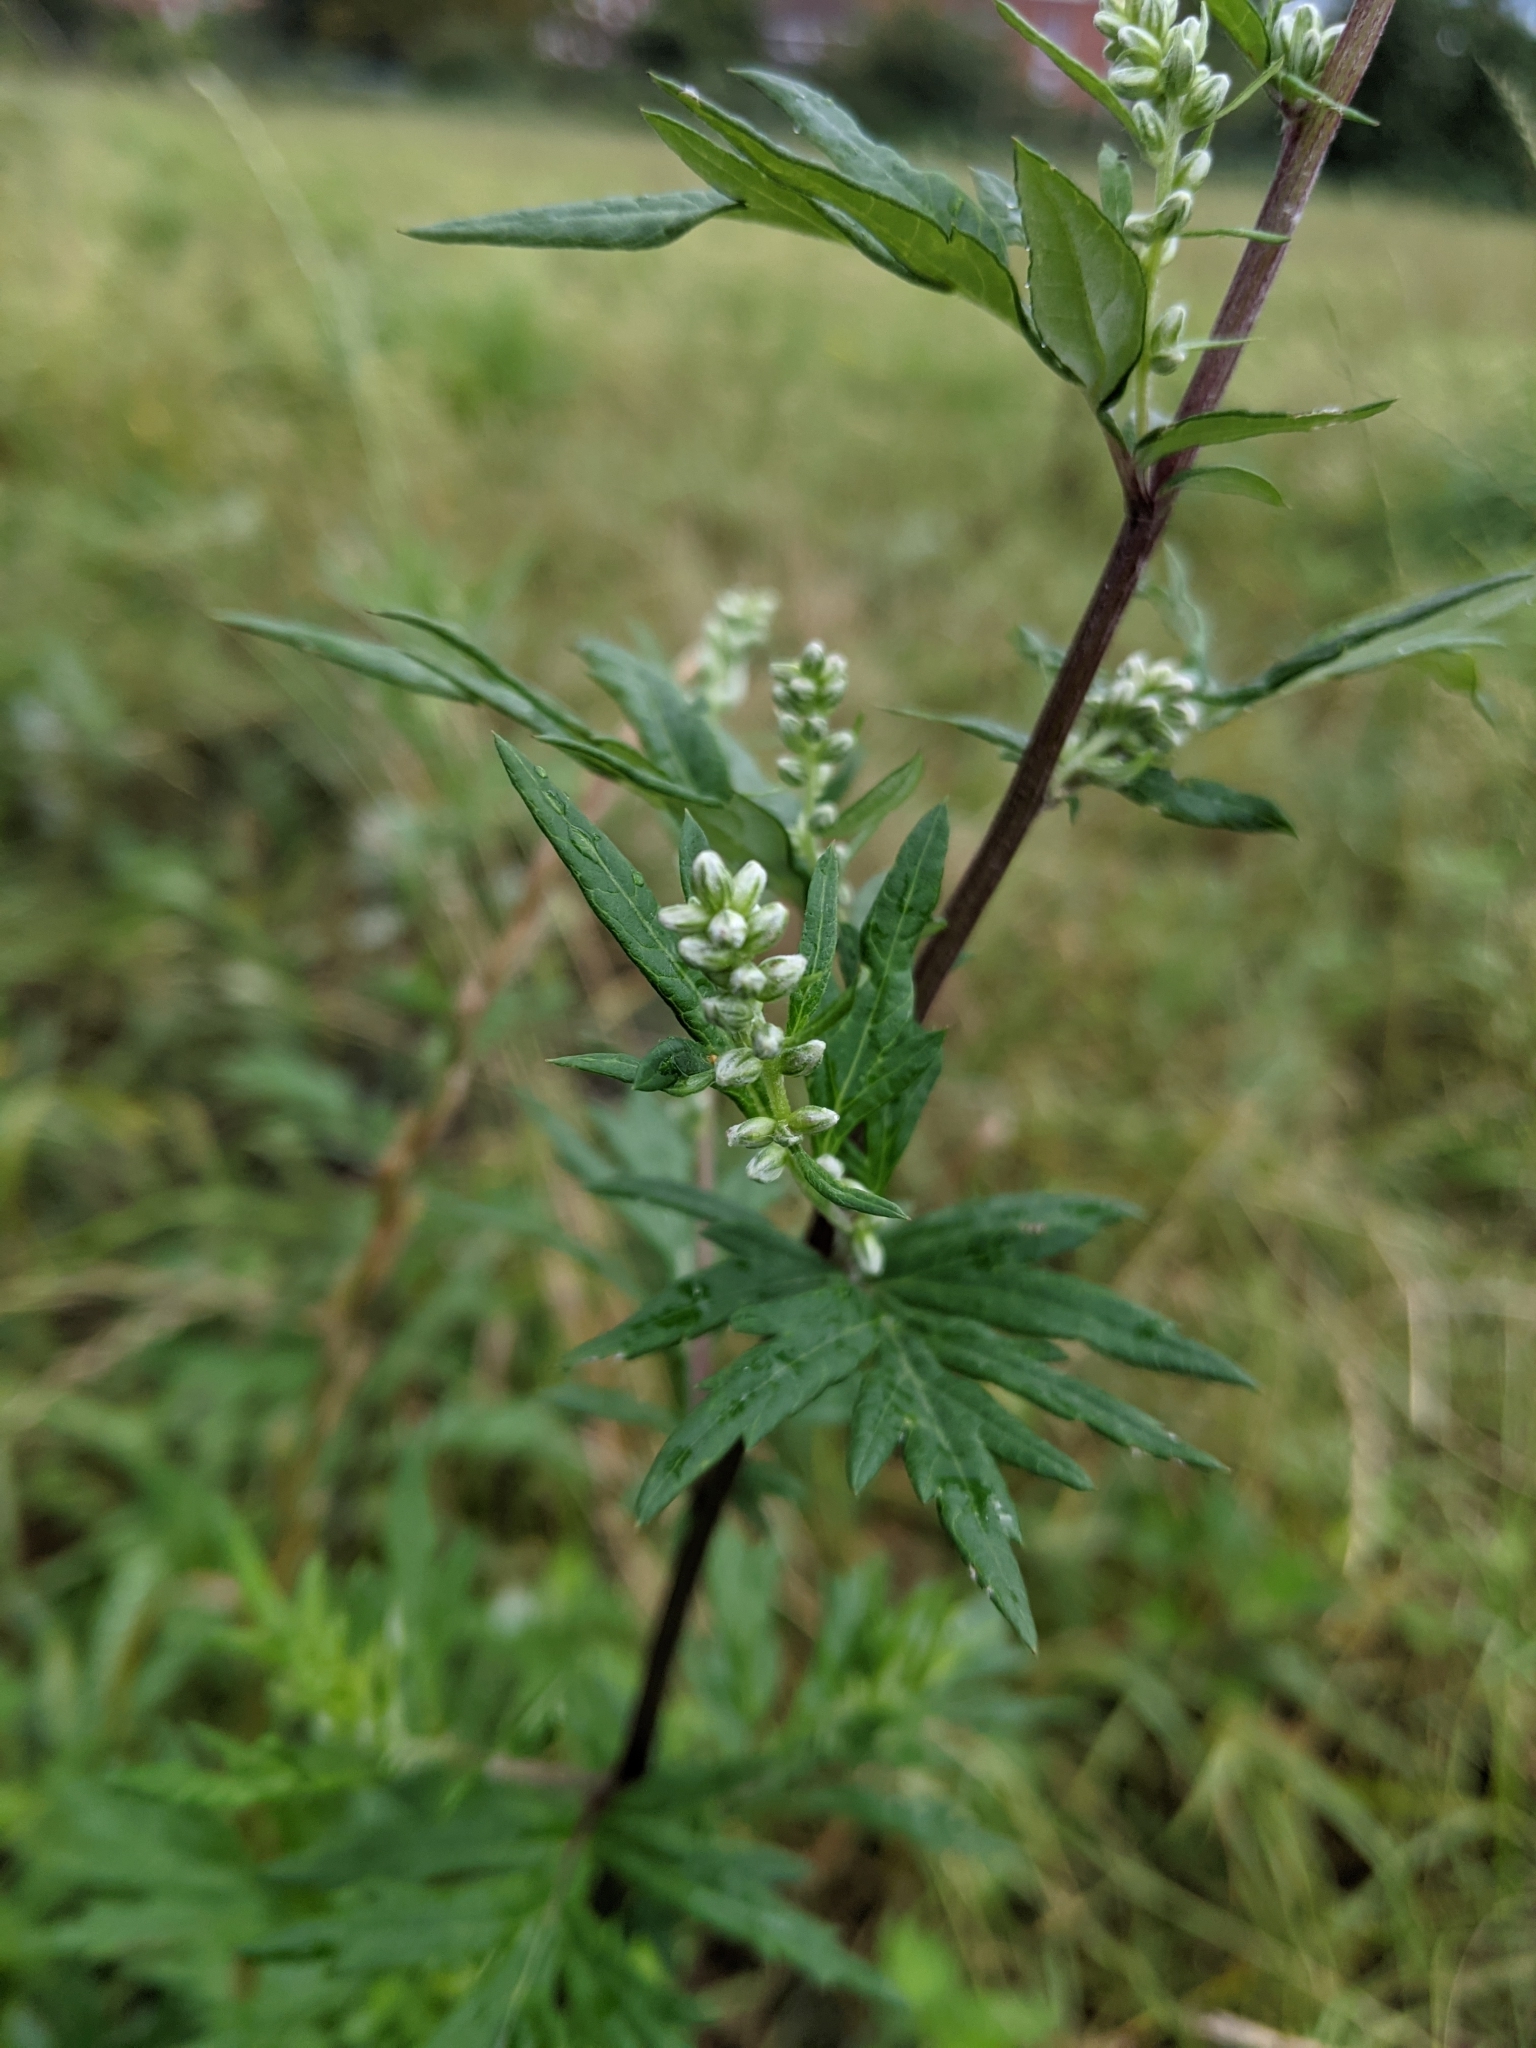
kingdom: Plantae
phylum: Tracheophyta
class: Magnoliopsida
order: Asterales
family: Asteraceae
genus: Artemisia
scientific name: Artemisia vulgaris
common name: Mugwort
